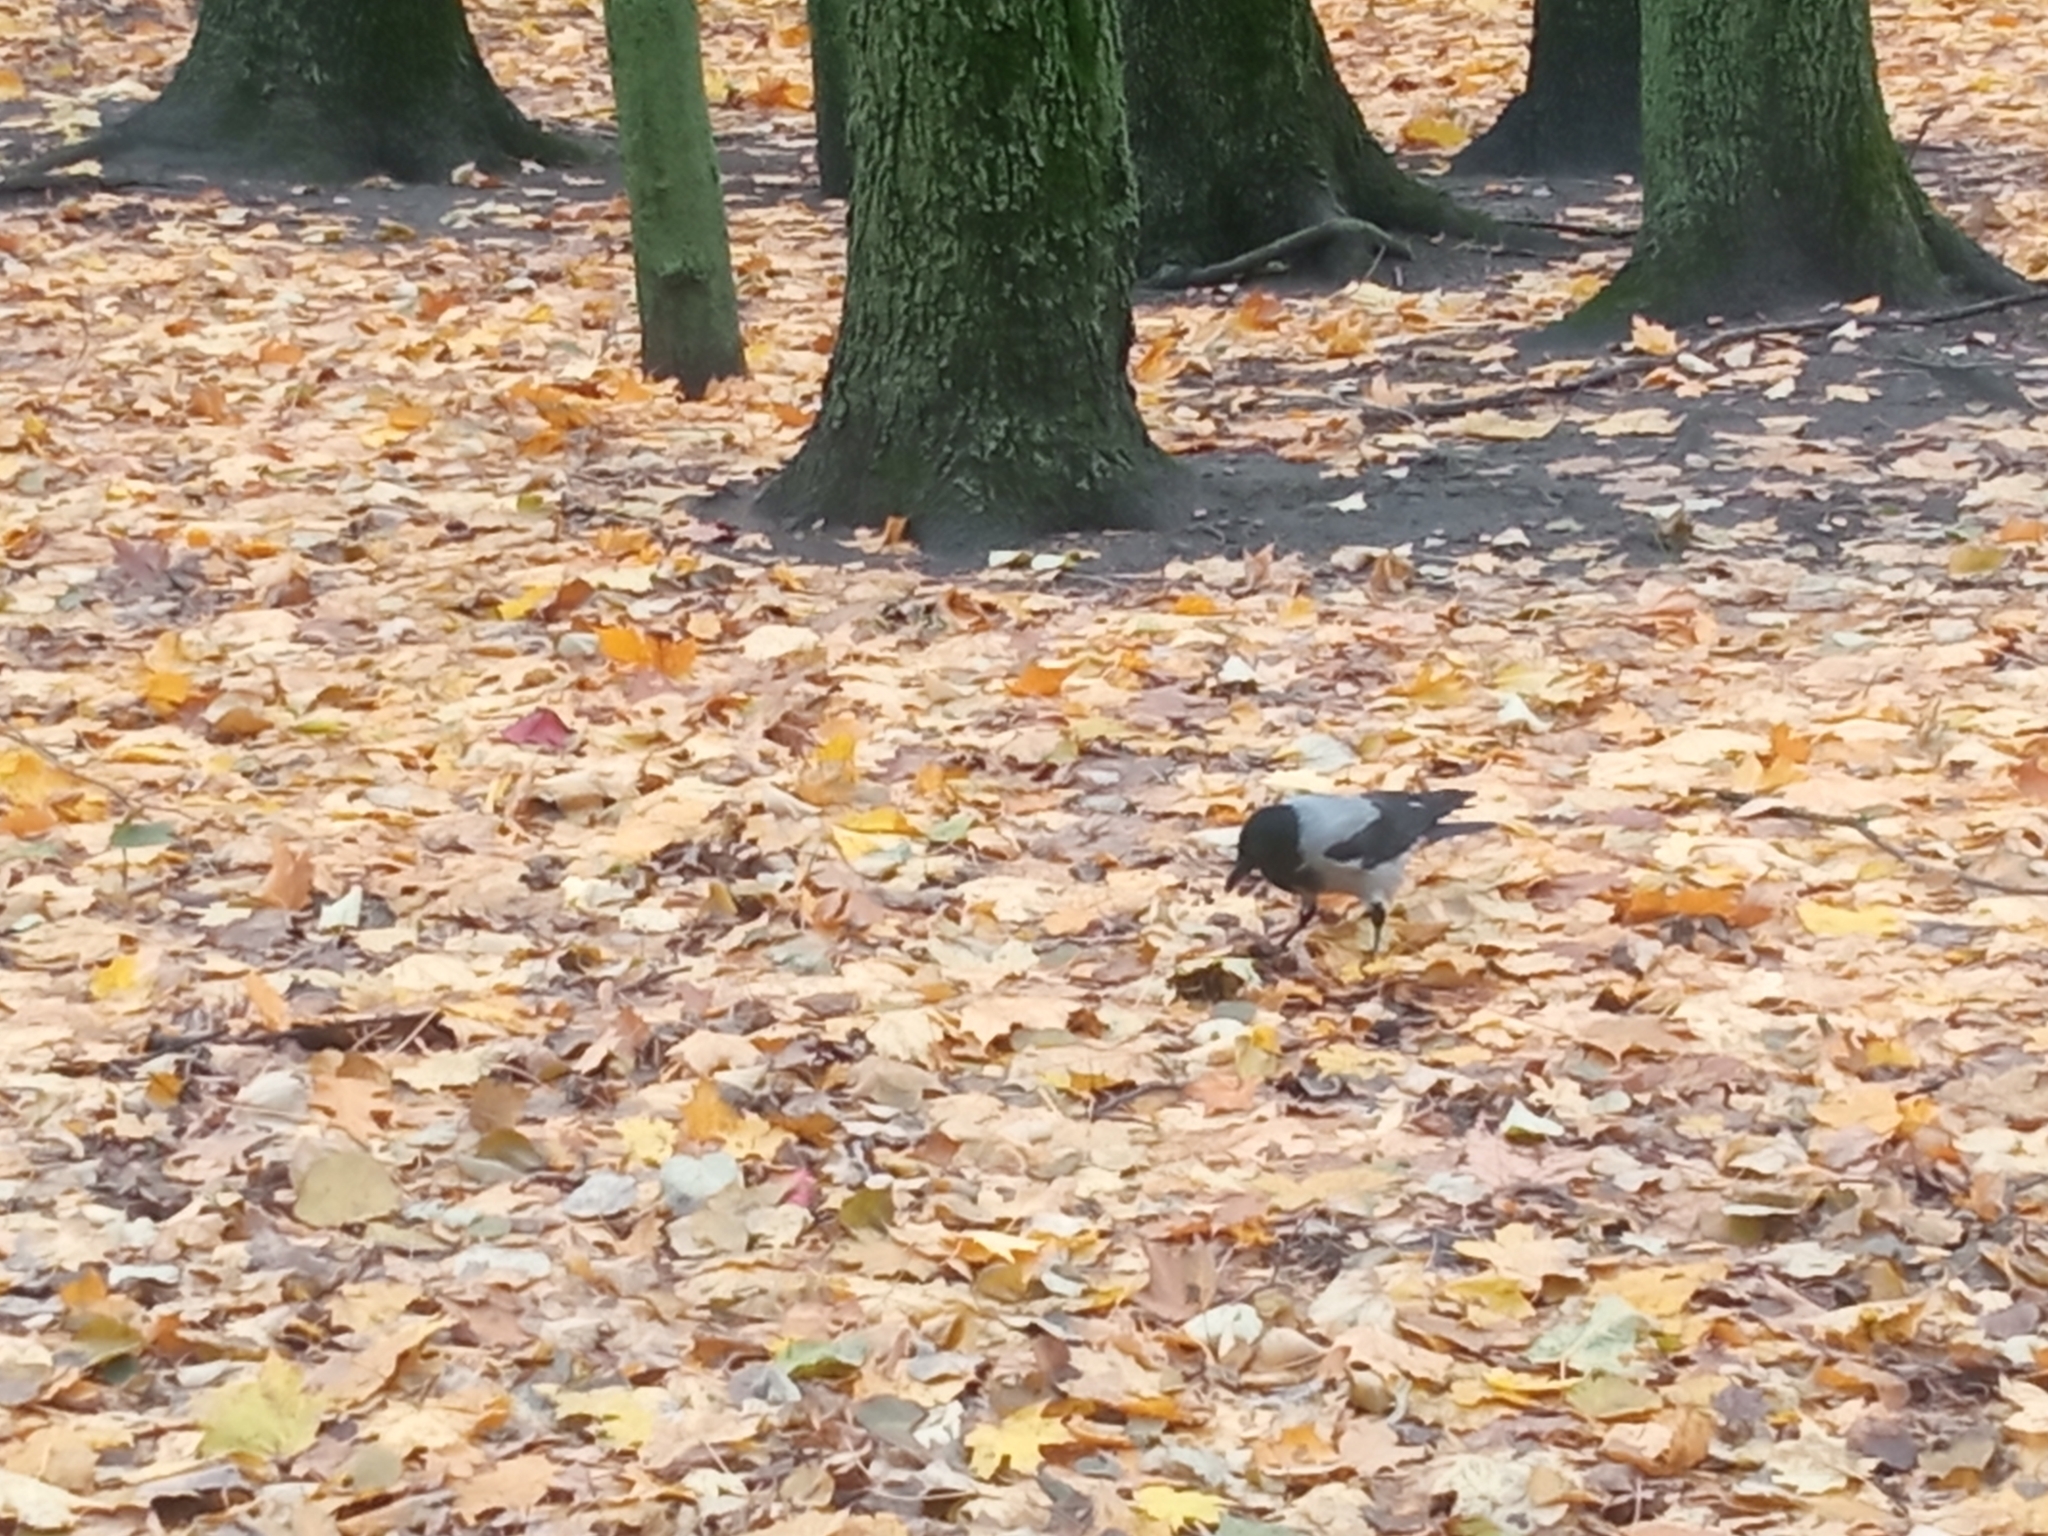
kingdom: Animalia
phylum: Chordata
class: Aves
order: Passeriformes
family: Corvidae
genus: Corvus
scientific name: Corvus cornix
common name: Hooded crow
